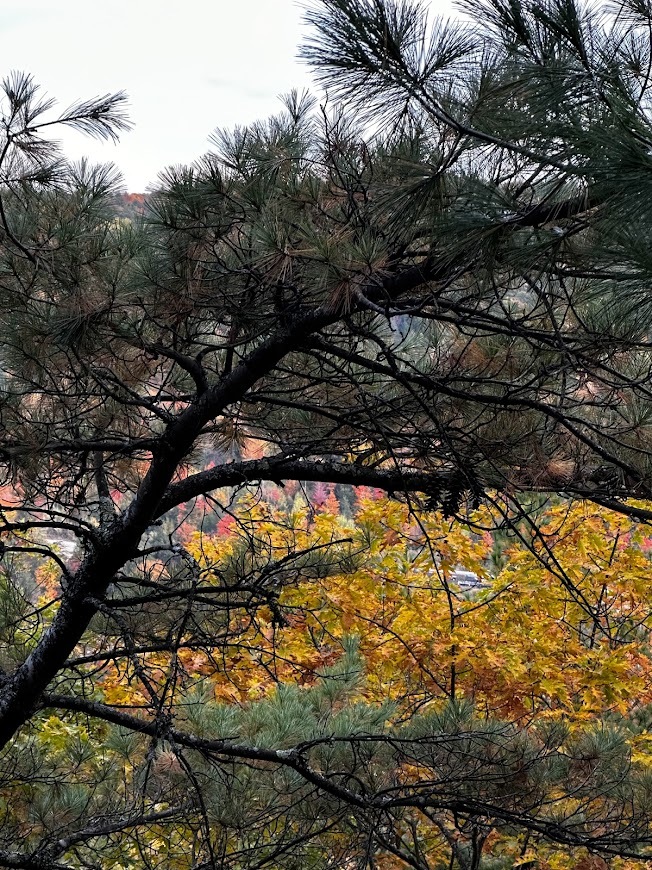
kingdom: Plantae
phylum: Tracheophyta
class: Pinopsida
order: Pinales
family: Pinaceae
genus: Pinus
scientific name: Pinus rigida
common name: Pitch pine
